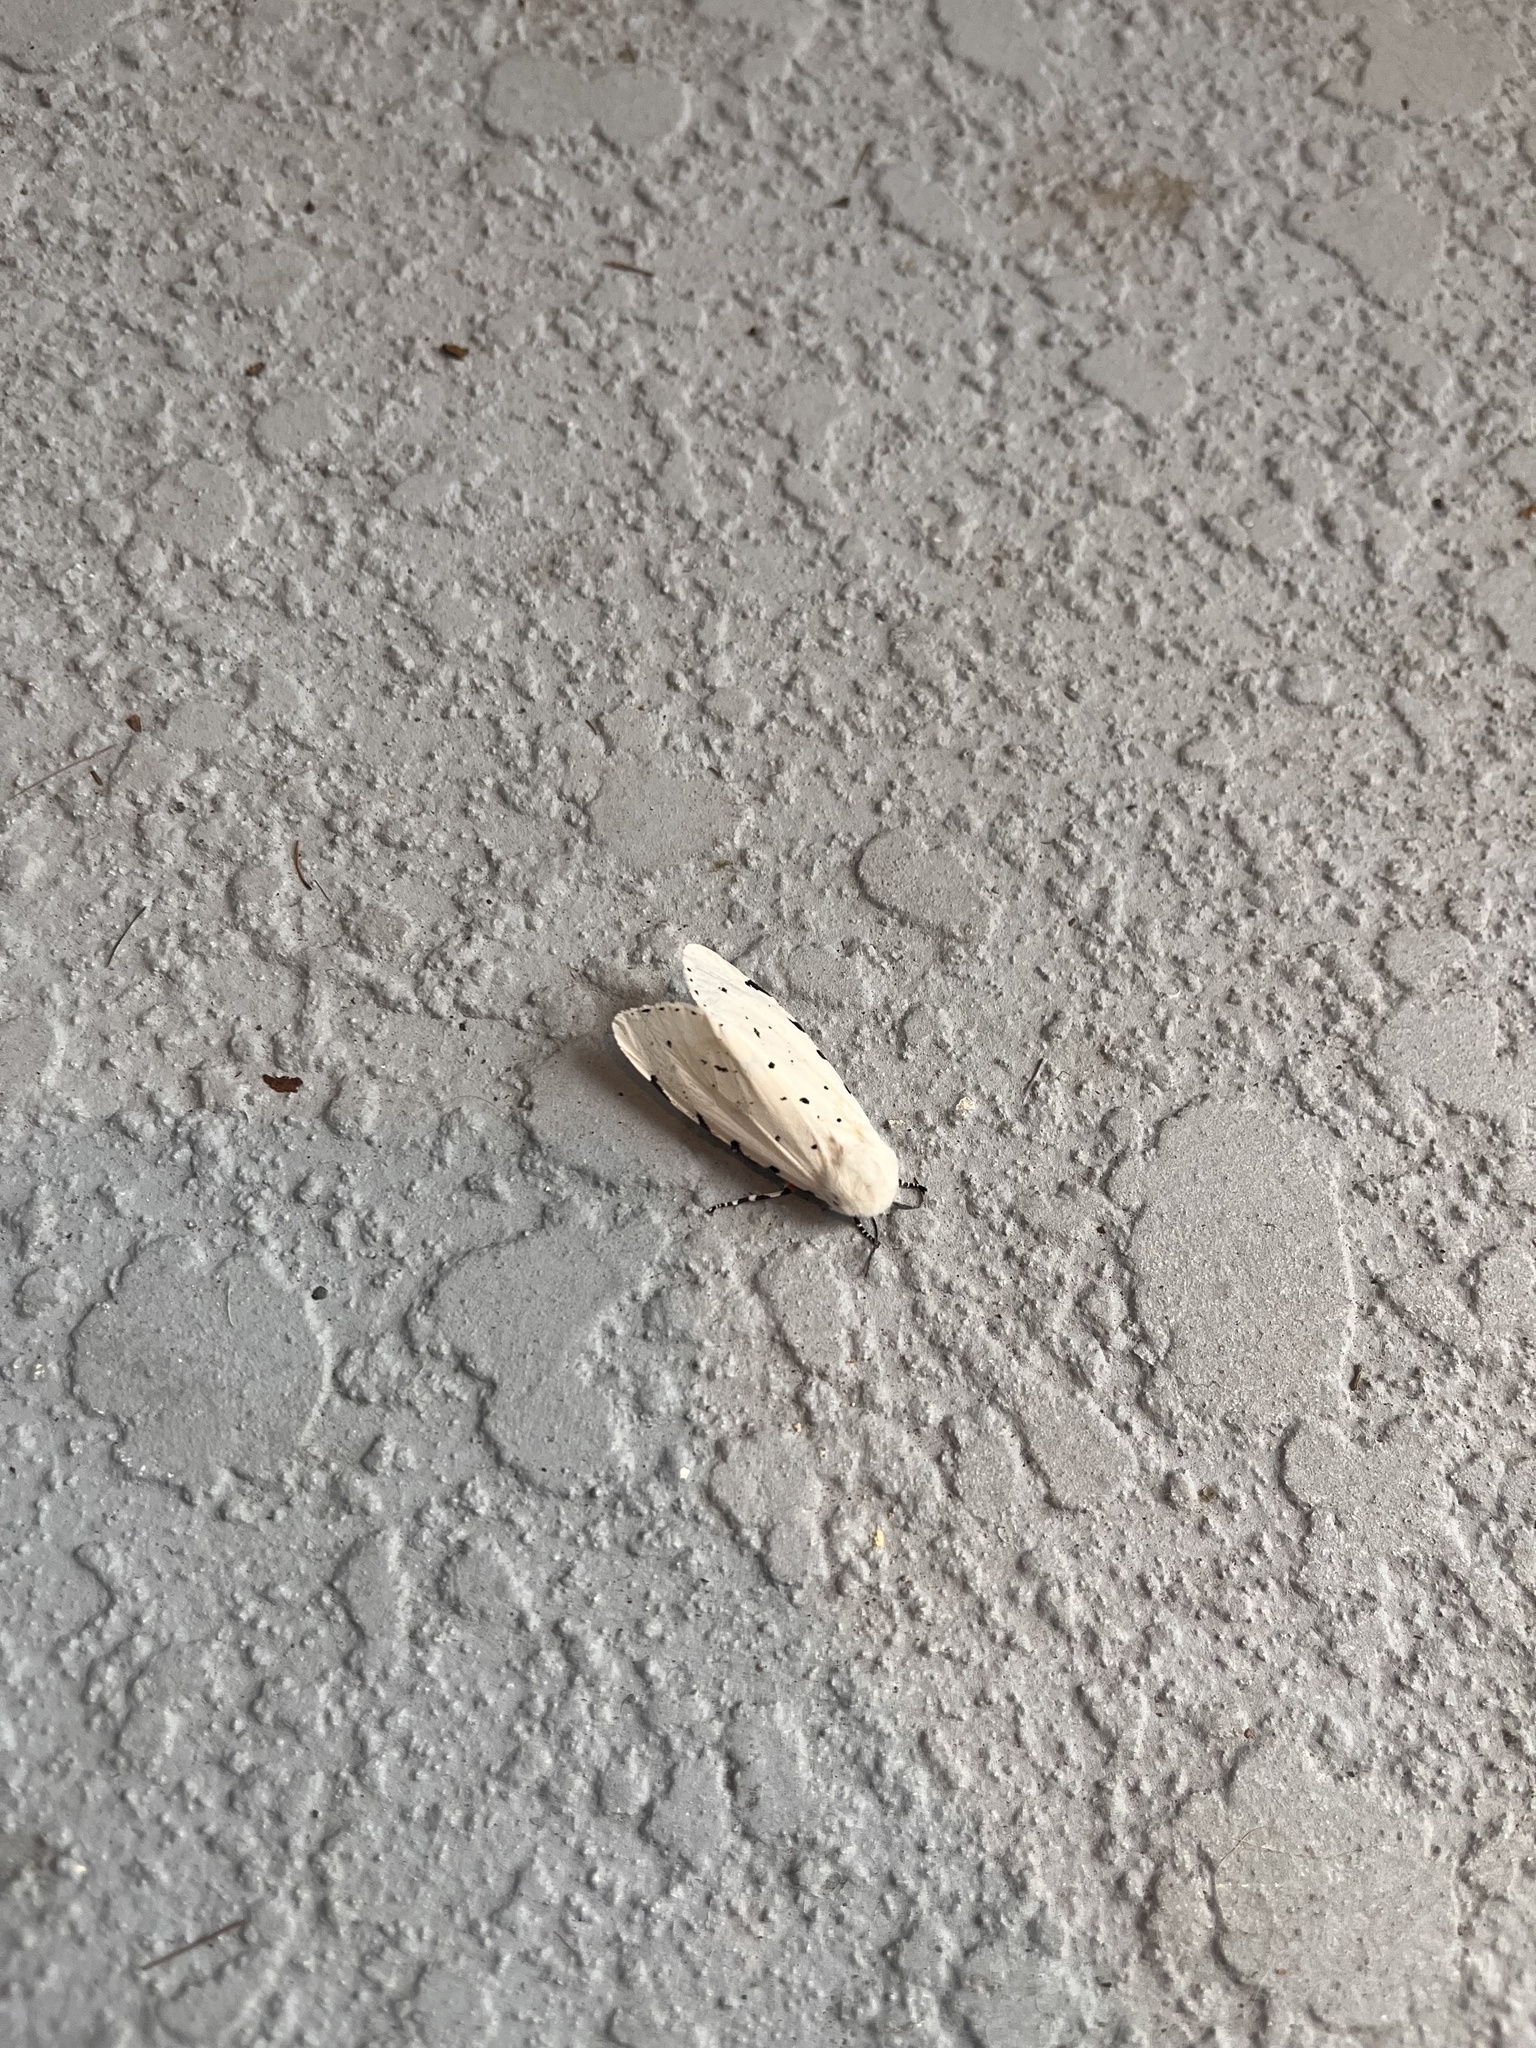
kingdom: Animalia
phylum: Arthropoda
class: Insecta
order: Lepidoptera
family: Erebidae
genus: Estigmene
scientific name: Estigmene acrea
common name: Salt marsh moth
